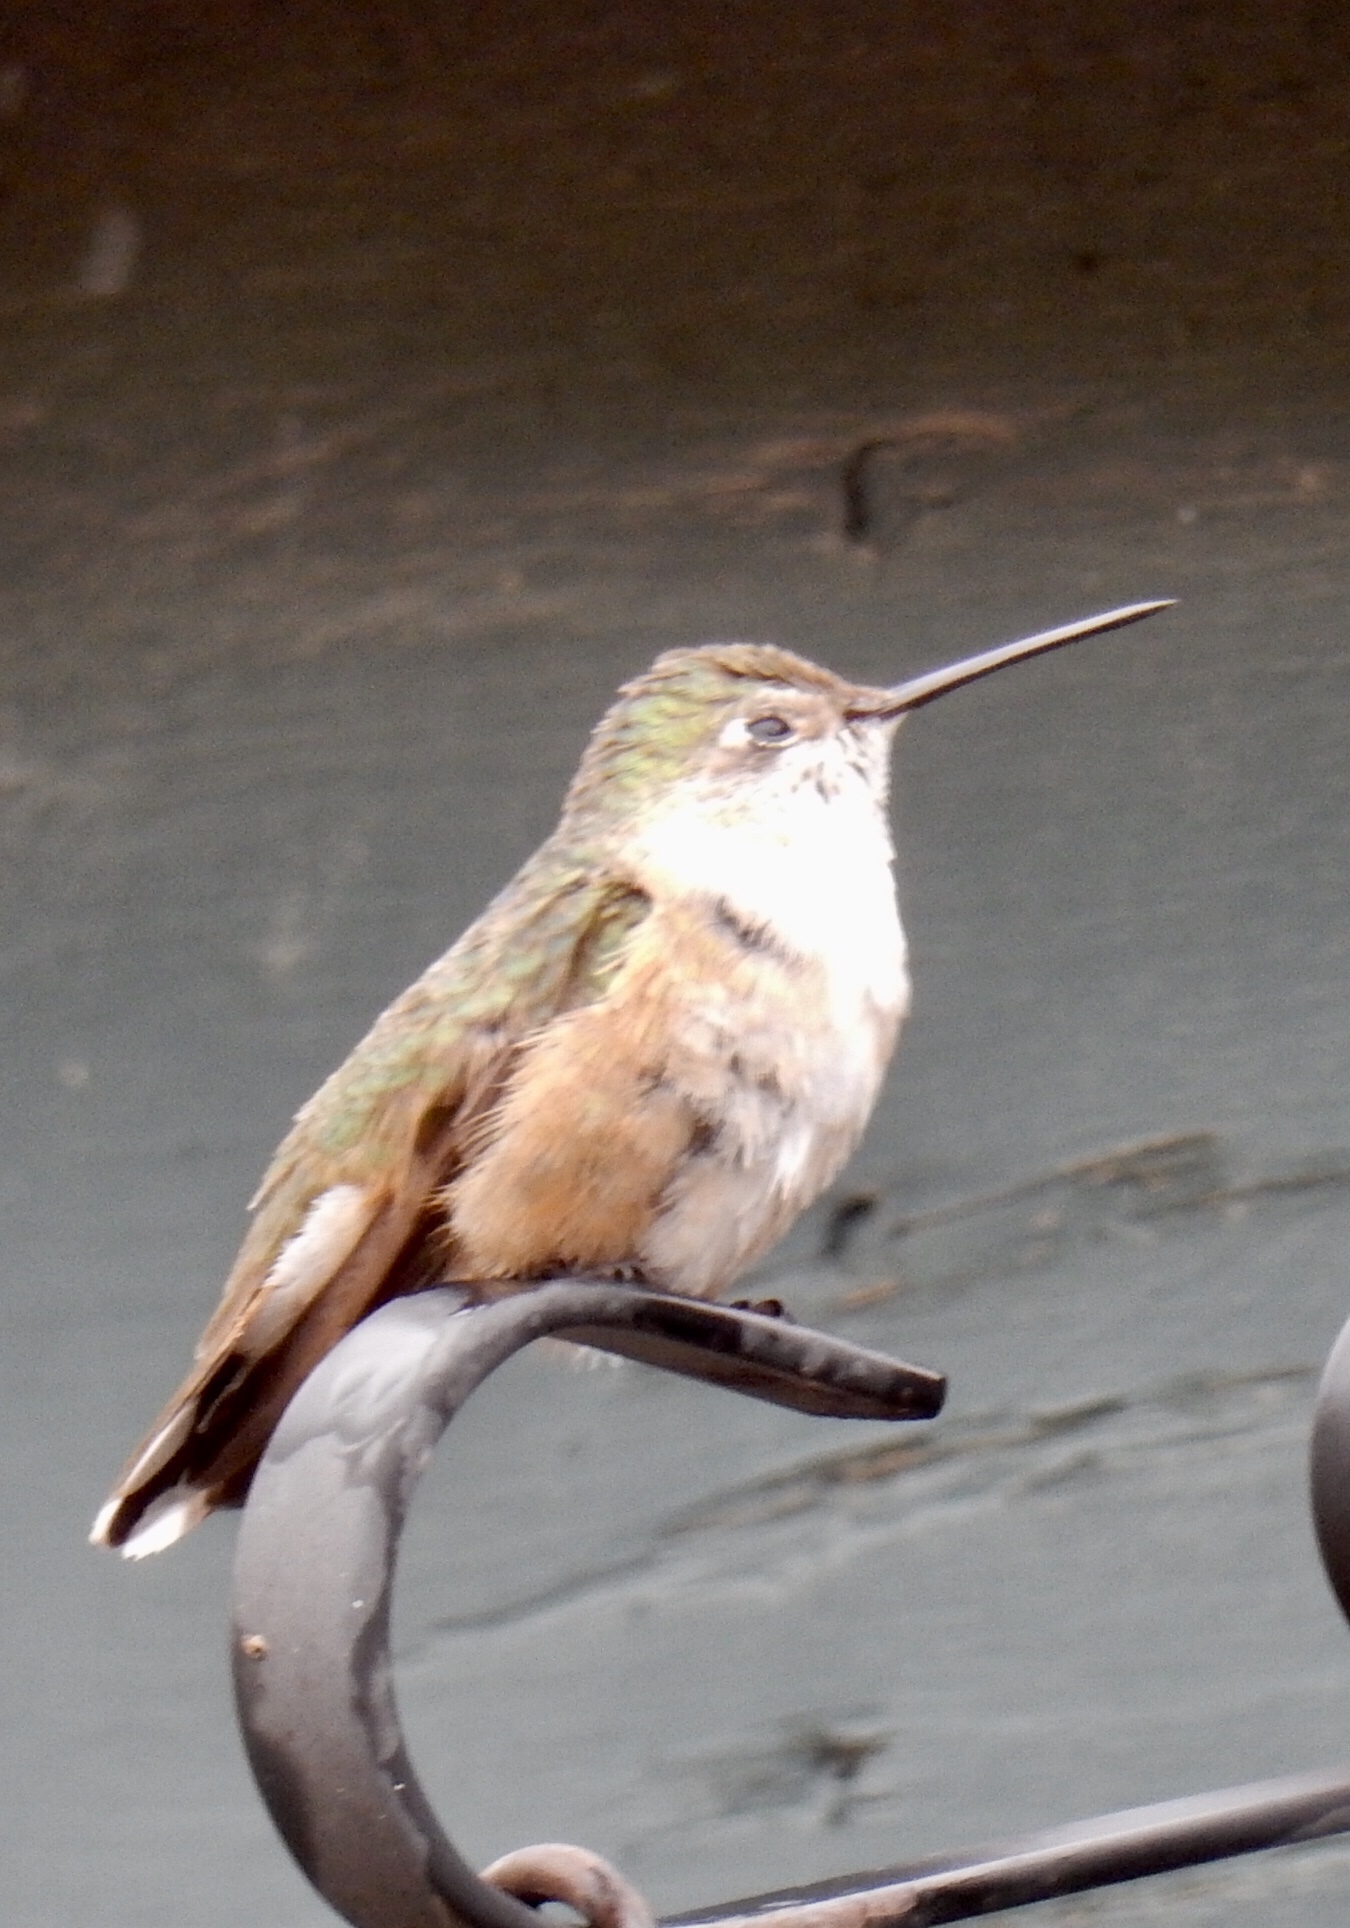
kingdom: Animalia
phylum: Chordata
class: Aves
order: Apodiformes
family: Trochilidae
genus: Selasphorus
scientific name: Selasphorus platycercus
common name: Broad-tailed hummingbird
